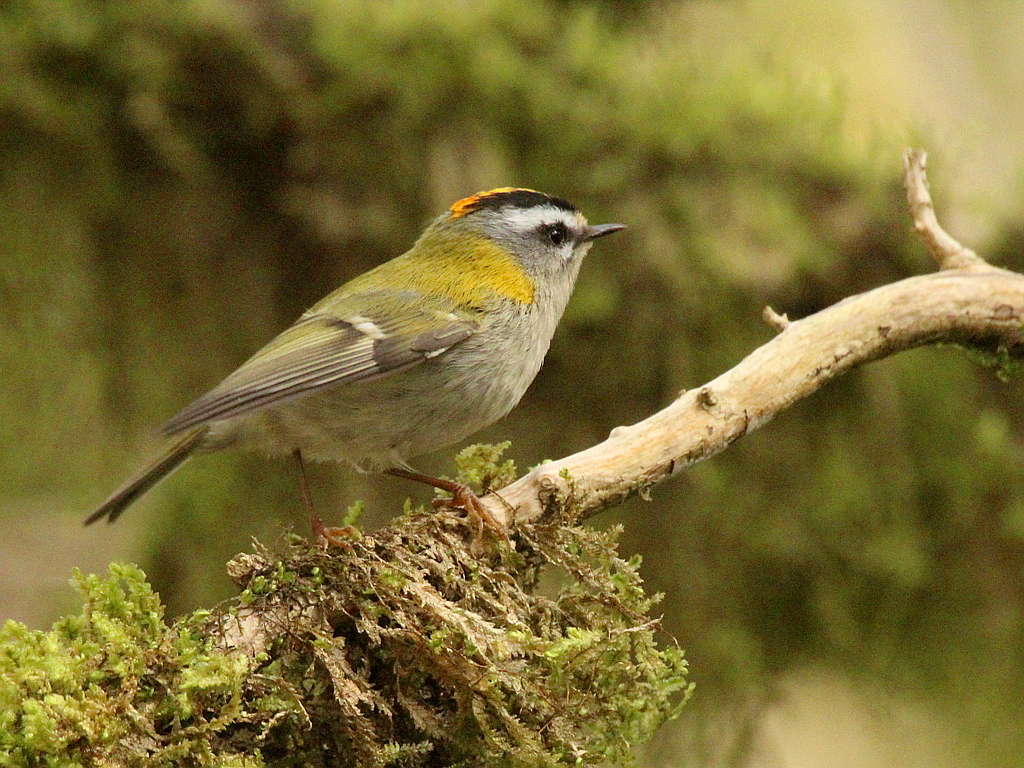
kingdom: Animalia
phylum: Chordata
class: Aves
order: Passeriformes
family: Regulidae
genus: Regulus
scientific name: Regulus ignicapilla
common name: Firecrest
